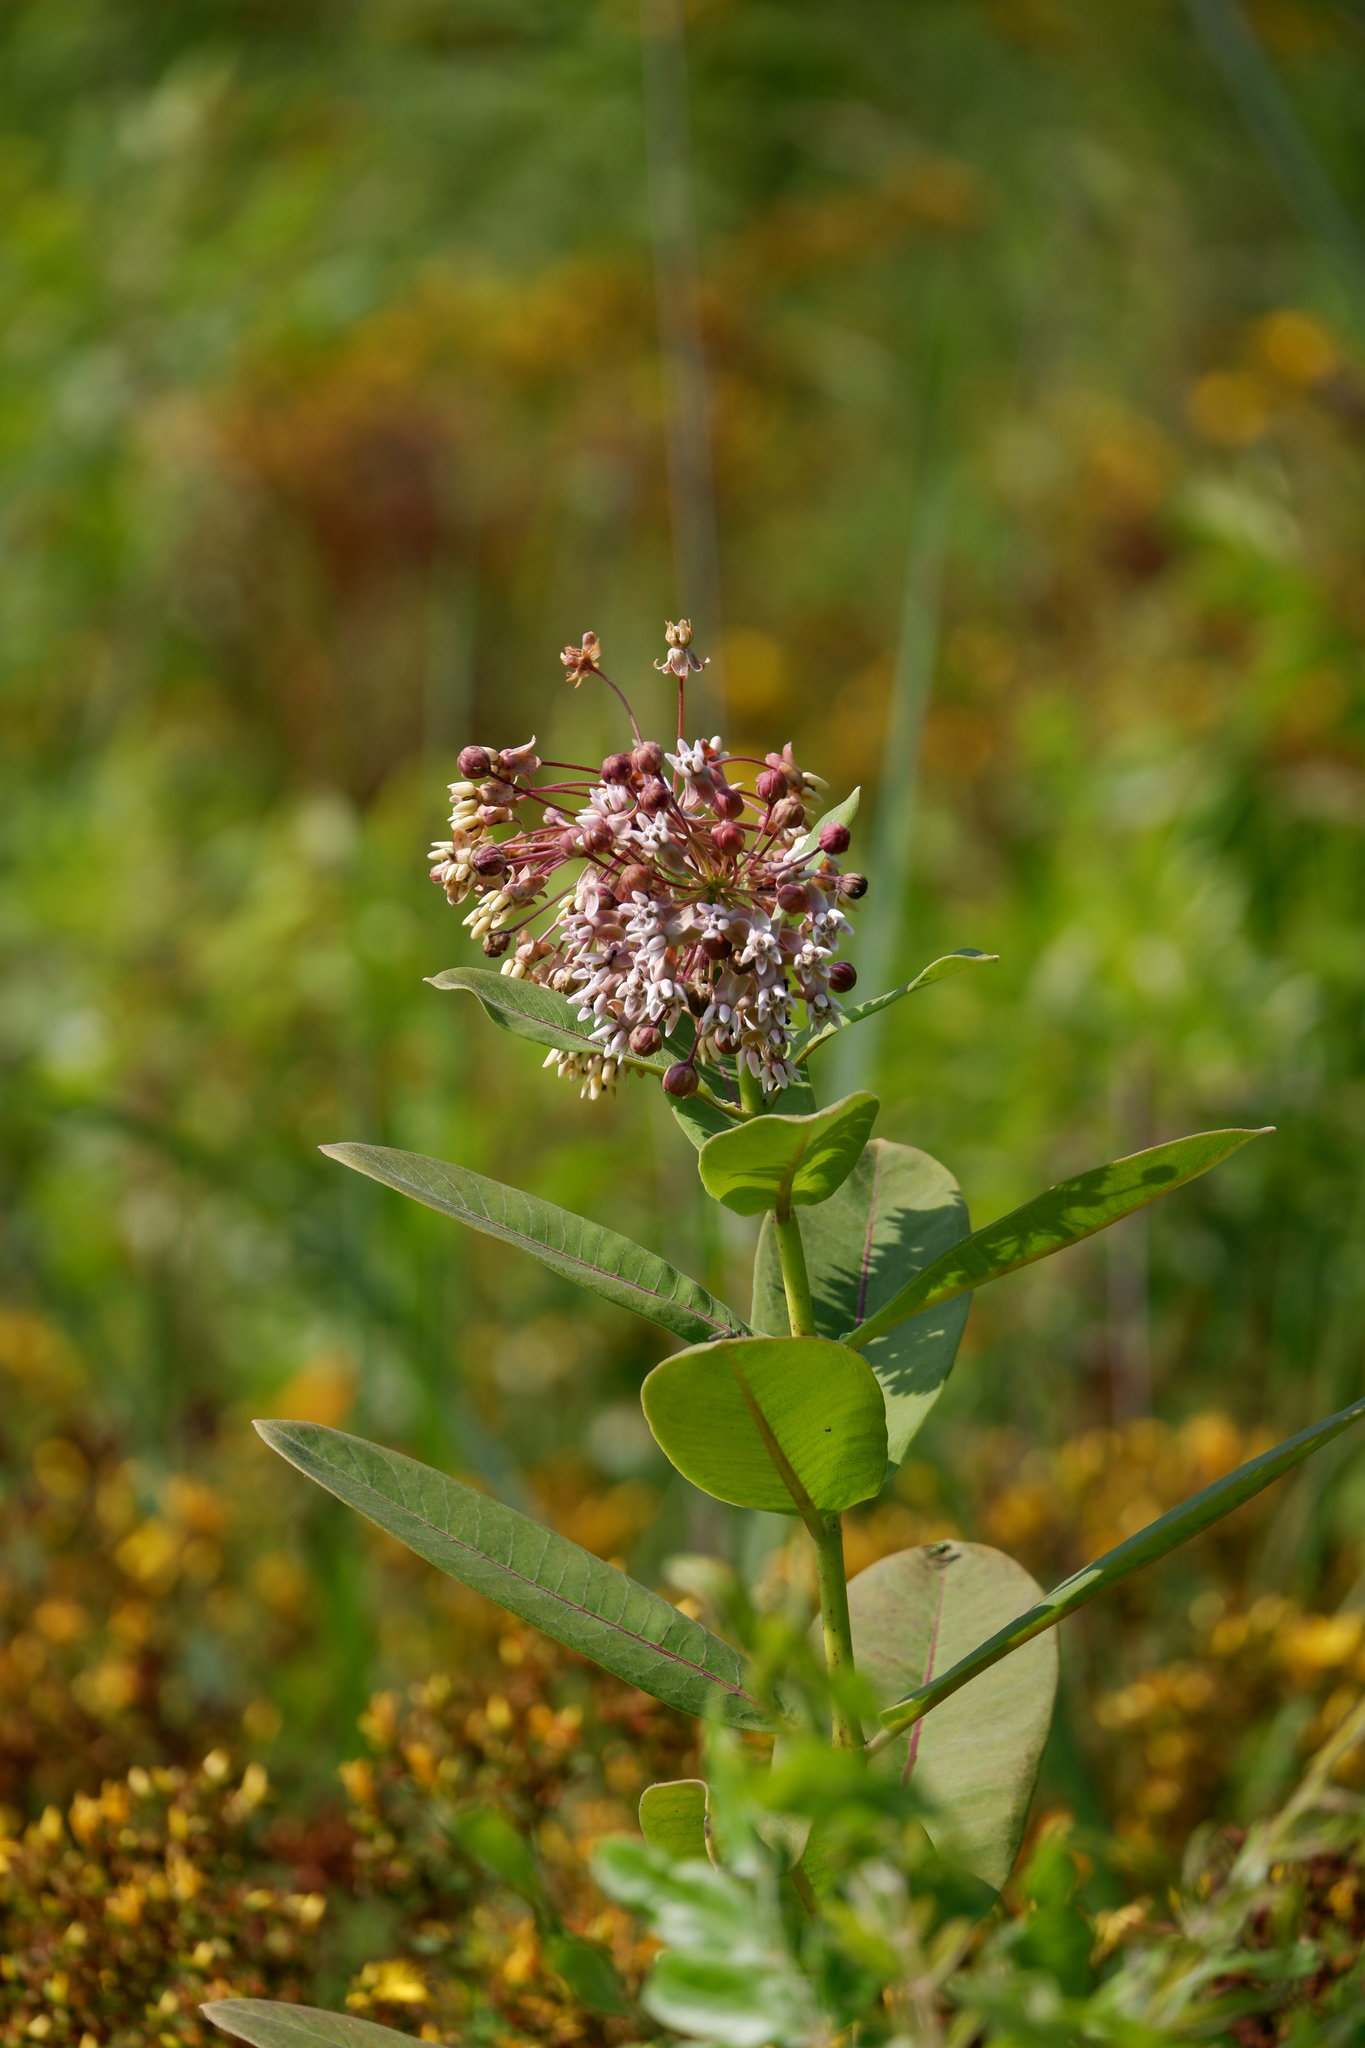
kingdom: Plantae
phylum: Tracheophyta
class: Magnoliopsida
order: Gentianales
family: Apocynaceae
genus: Asclepias
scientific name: Asclepias syriaca
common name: Common milkweed
